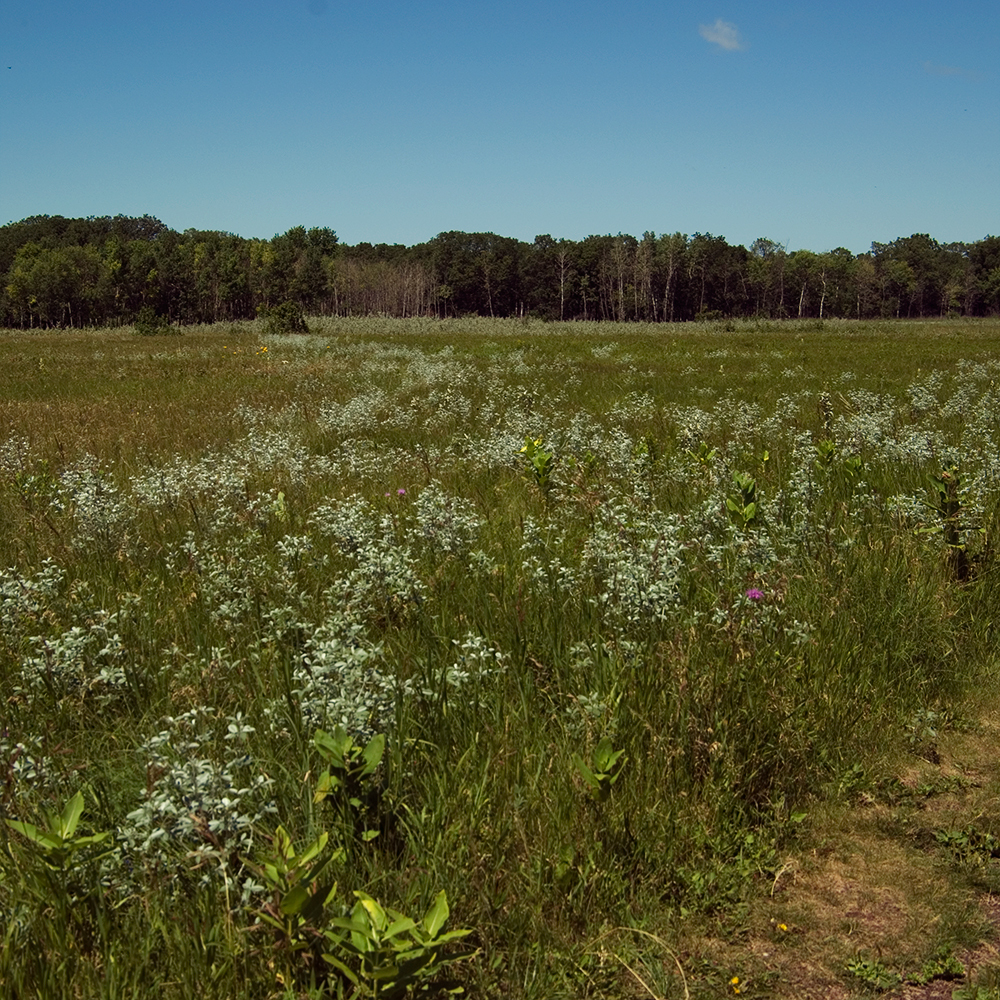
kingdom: Plantae
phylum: Tracheophyta
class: Magnoliopsida
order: Fabales
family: Fabaceae
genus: Pediomelum
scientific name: Pediomelum argophyllum
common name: Silver-leaved indian breadroot
